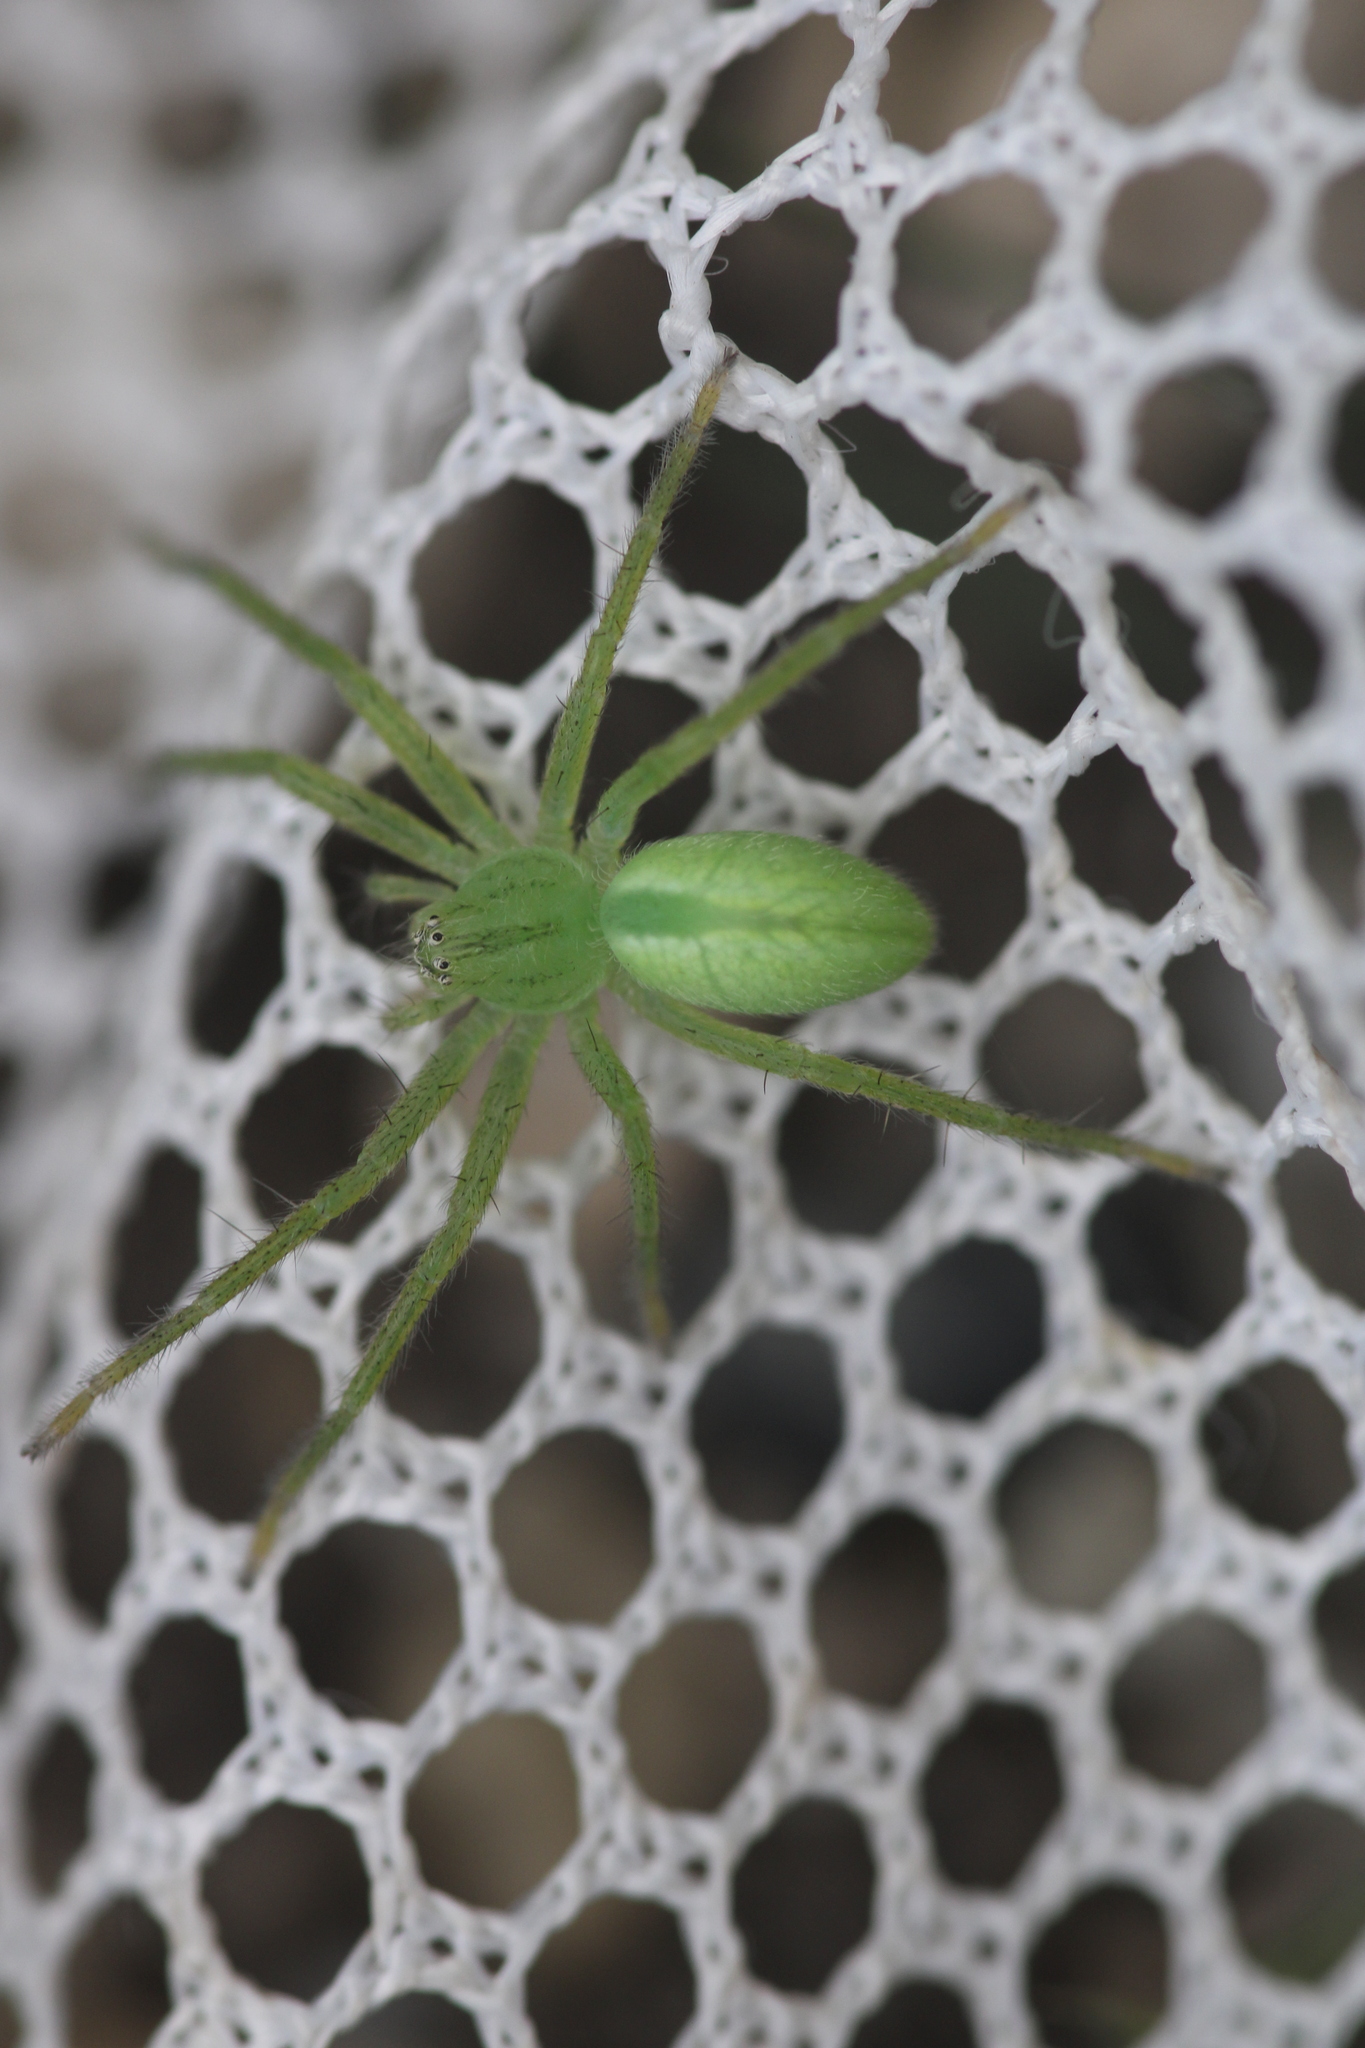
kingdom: Animalia
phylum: Arthropoda
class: Arachnida
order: Araneae
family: Sparassidae
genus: Micrommata
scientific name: Micrommata virescens
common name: Green spider
